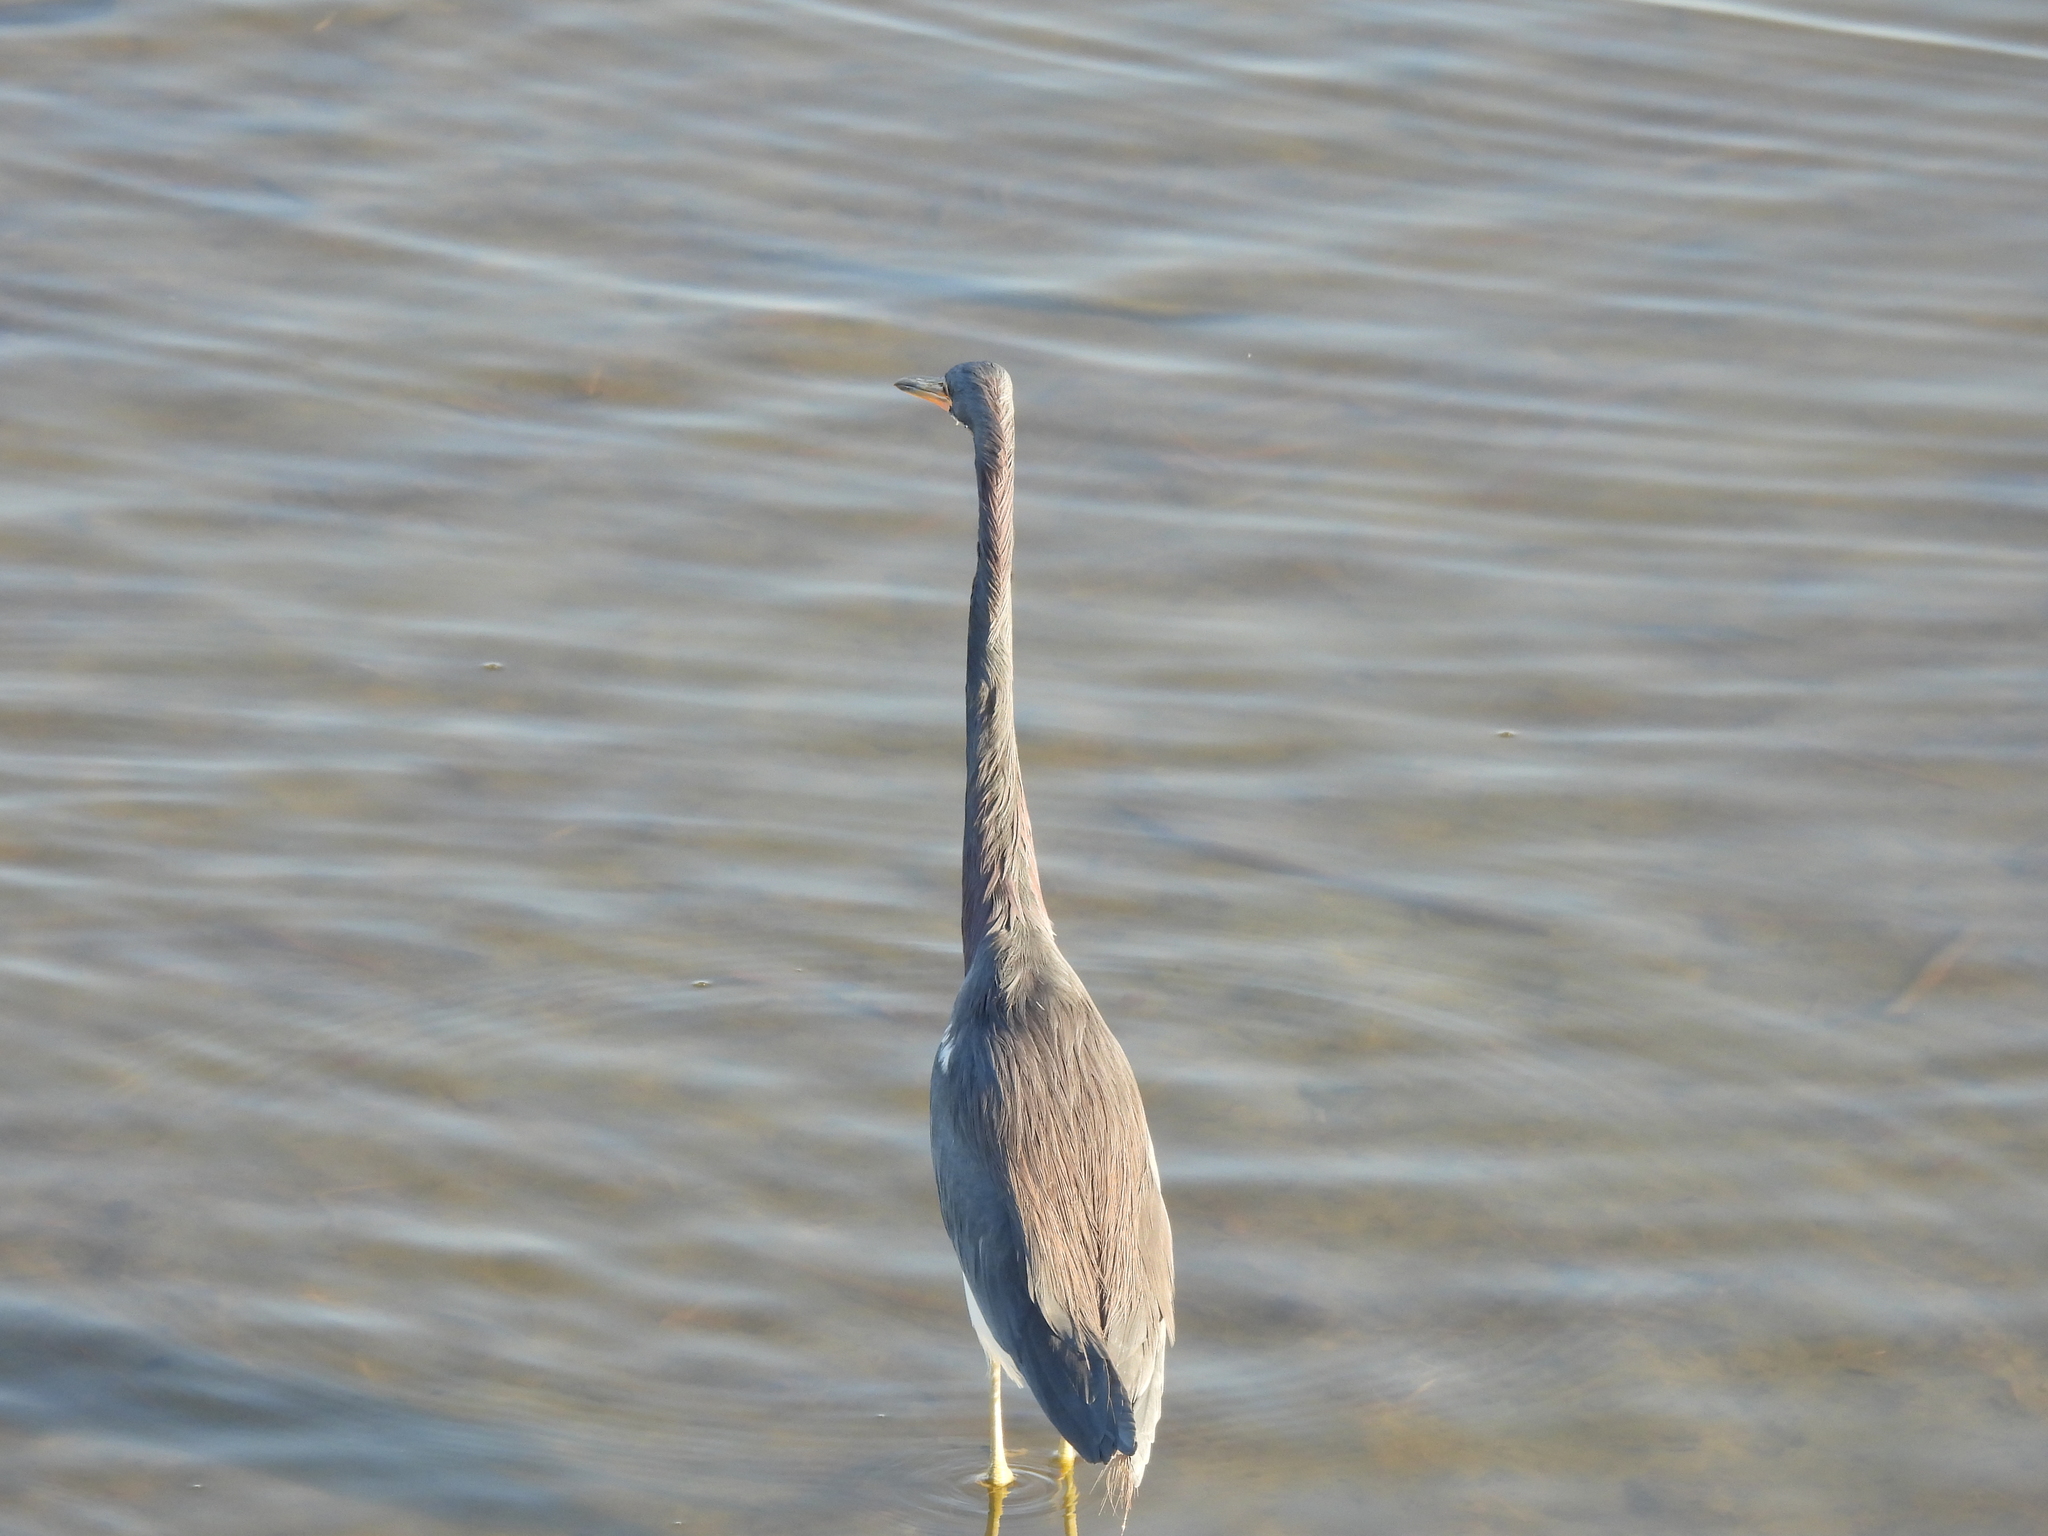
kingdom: Animalia
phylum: Chordata
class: Aves
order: Pelecaniformes
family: Ardeidae
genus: Egretta
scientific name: Egretta tricolor
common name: Tricolored heron
